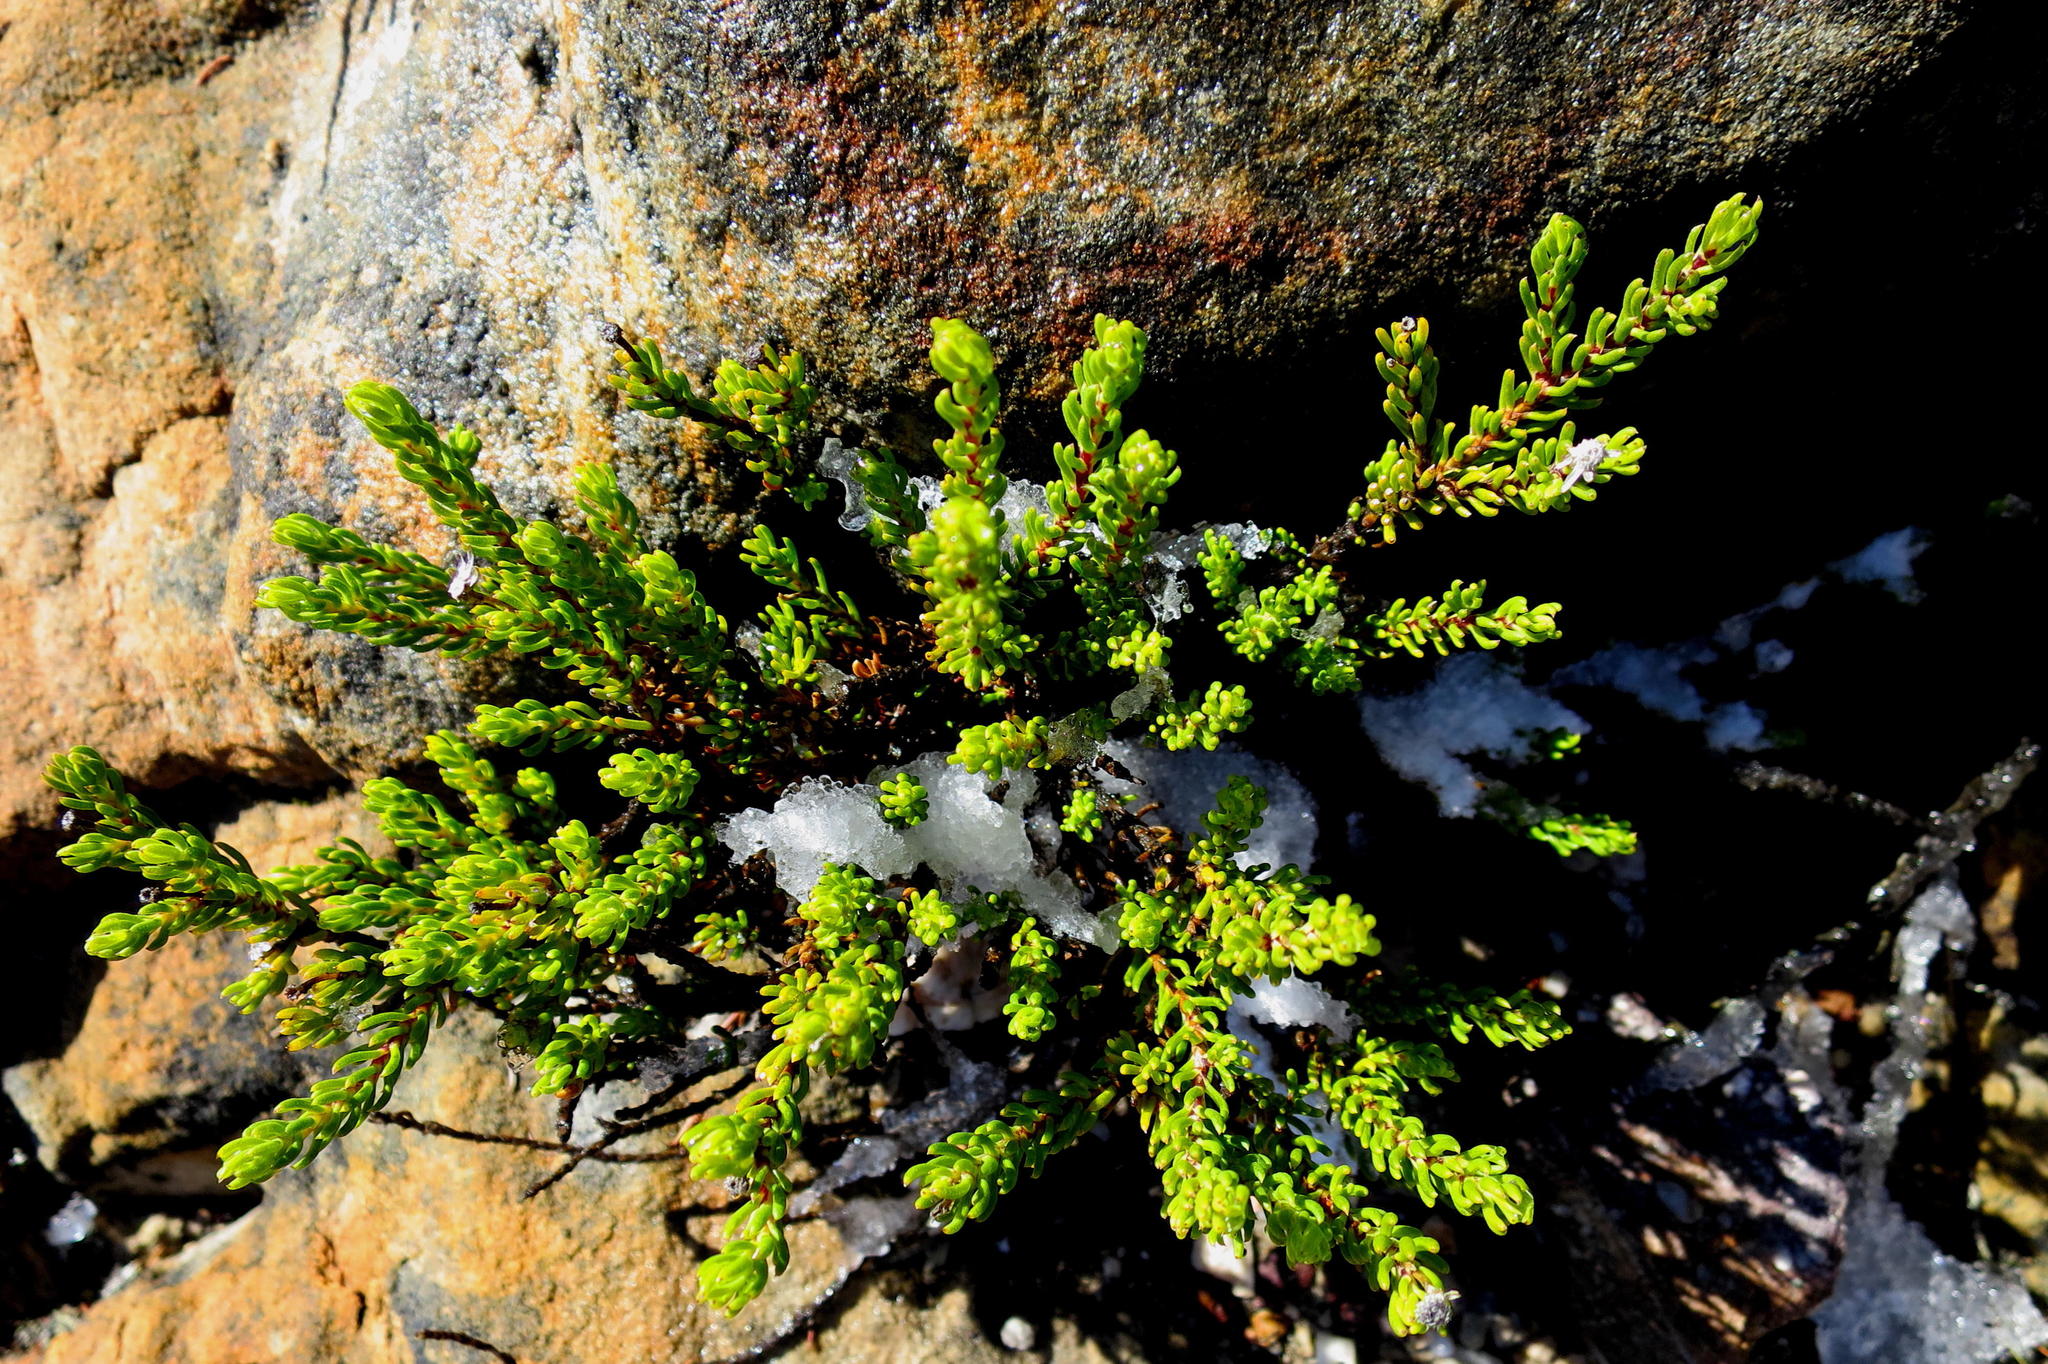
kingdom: Plantae
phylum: Tracheophyta
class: Magnoliopsida
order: Asterales
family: Asteraceae
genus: Felicia
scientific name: Felicia oleosa
